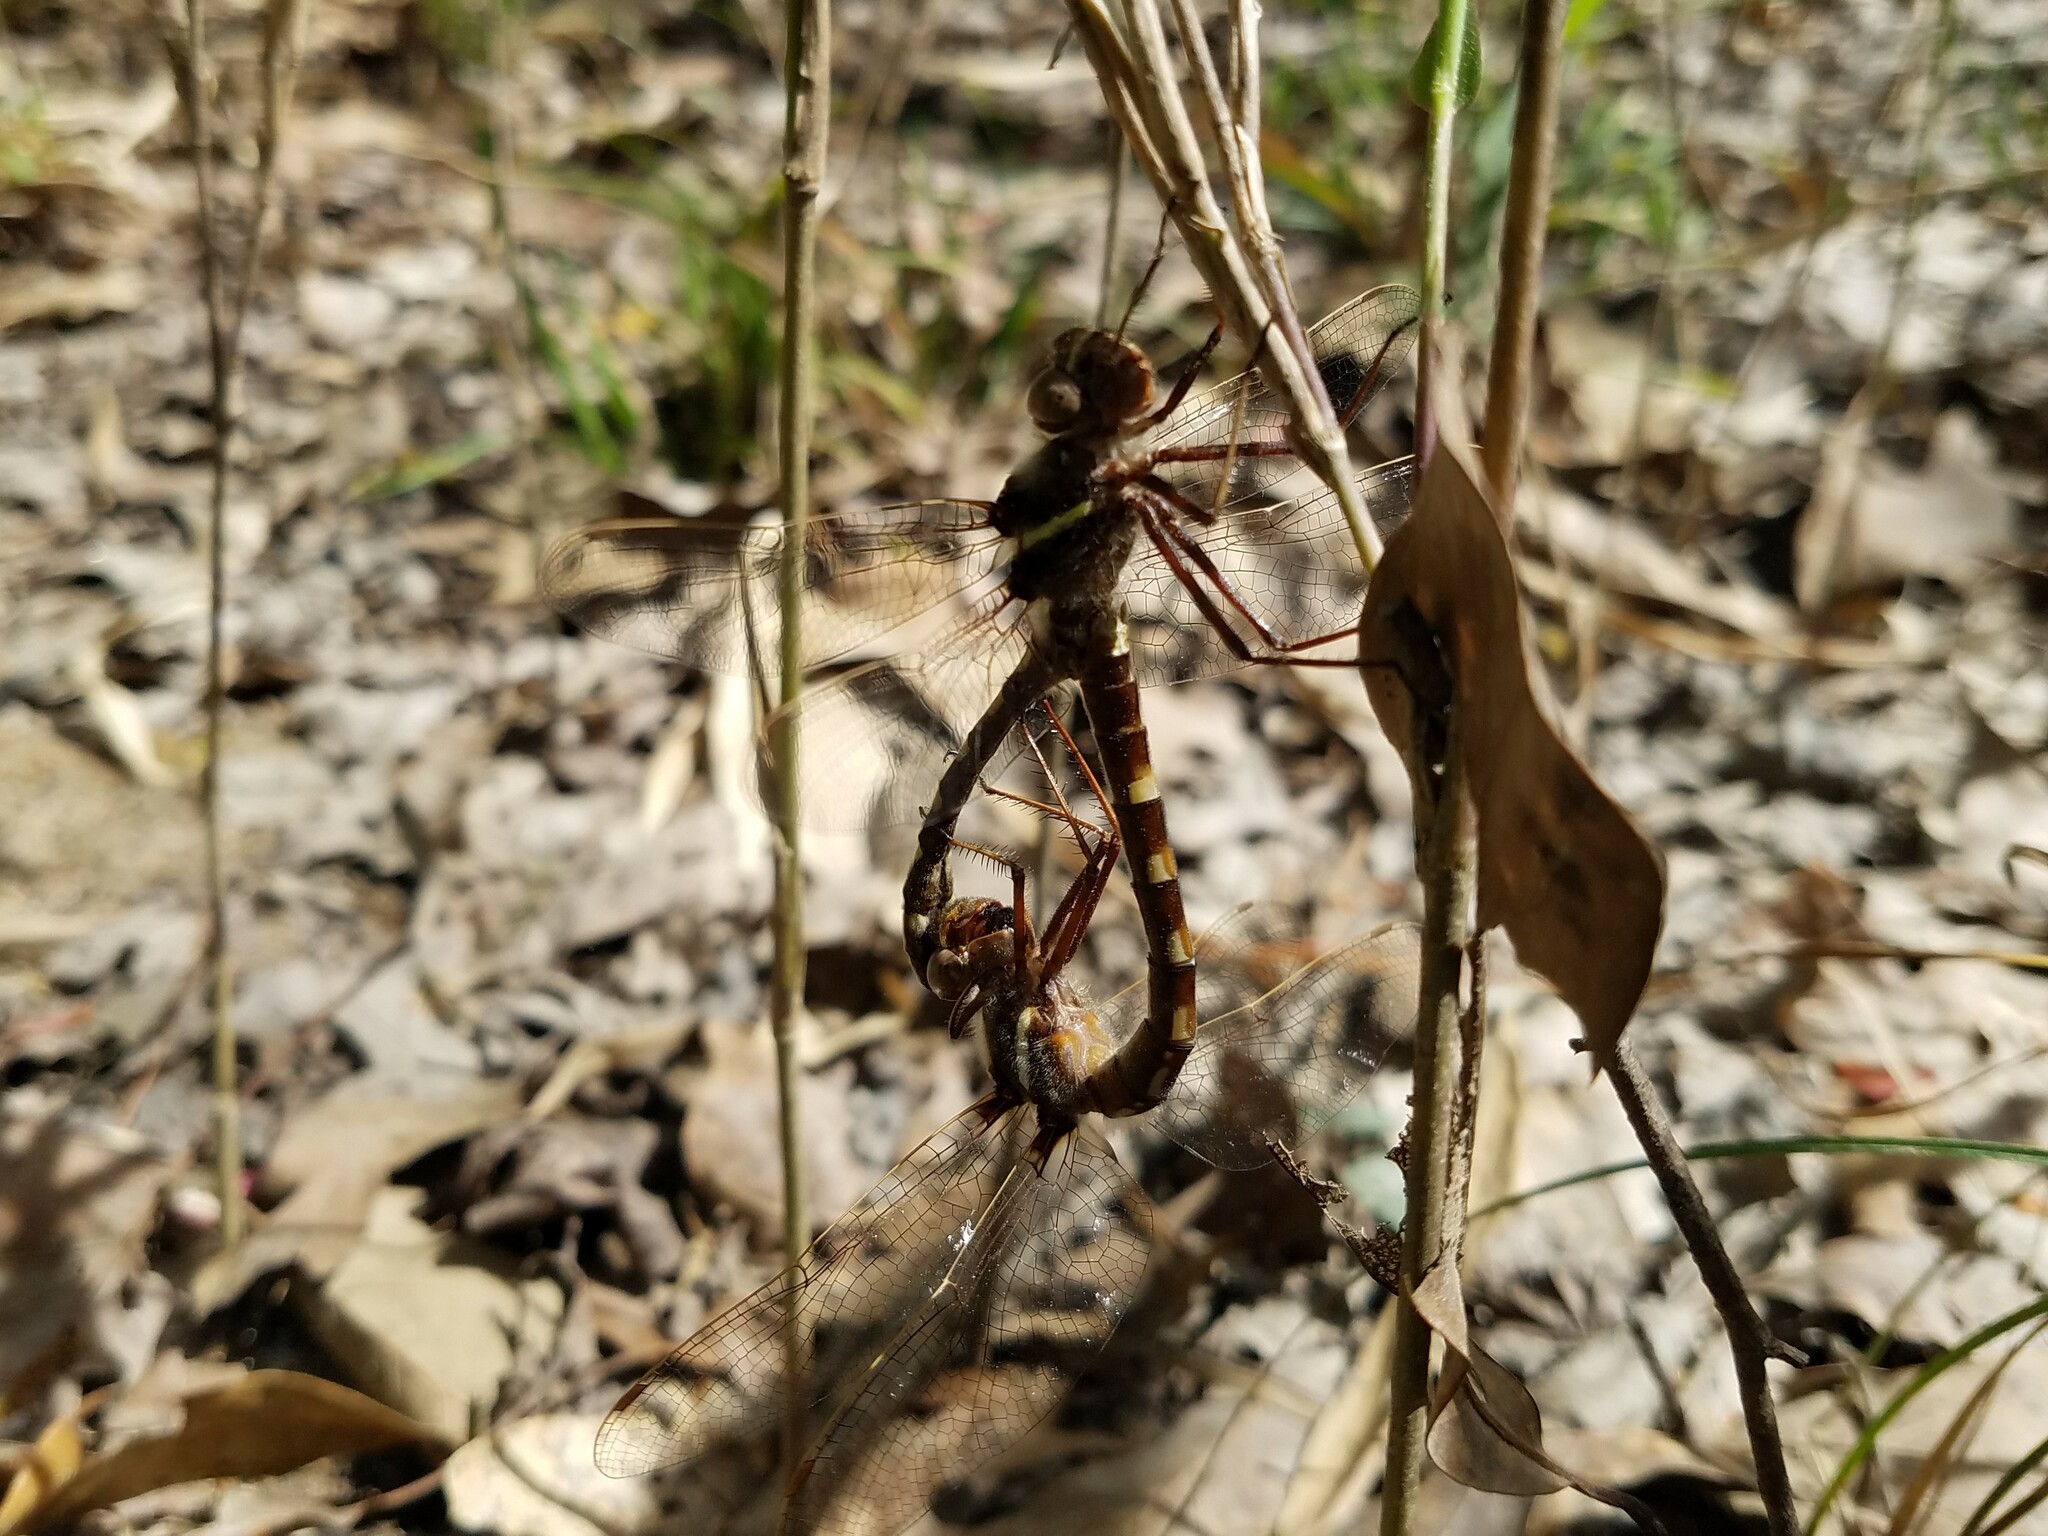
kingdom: Animalia
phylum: Arthropoda
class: Insecta
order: Odonata
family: Macromiidae
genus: Didymops
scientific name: Didymops transversa
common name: Stream cruiser
